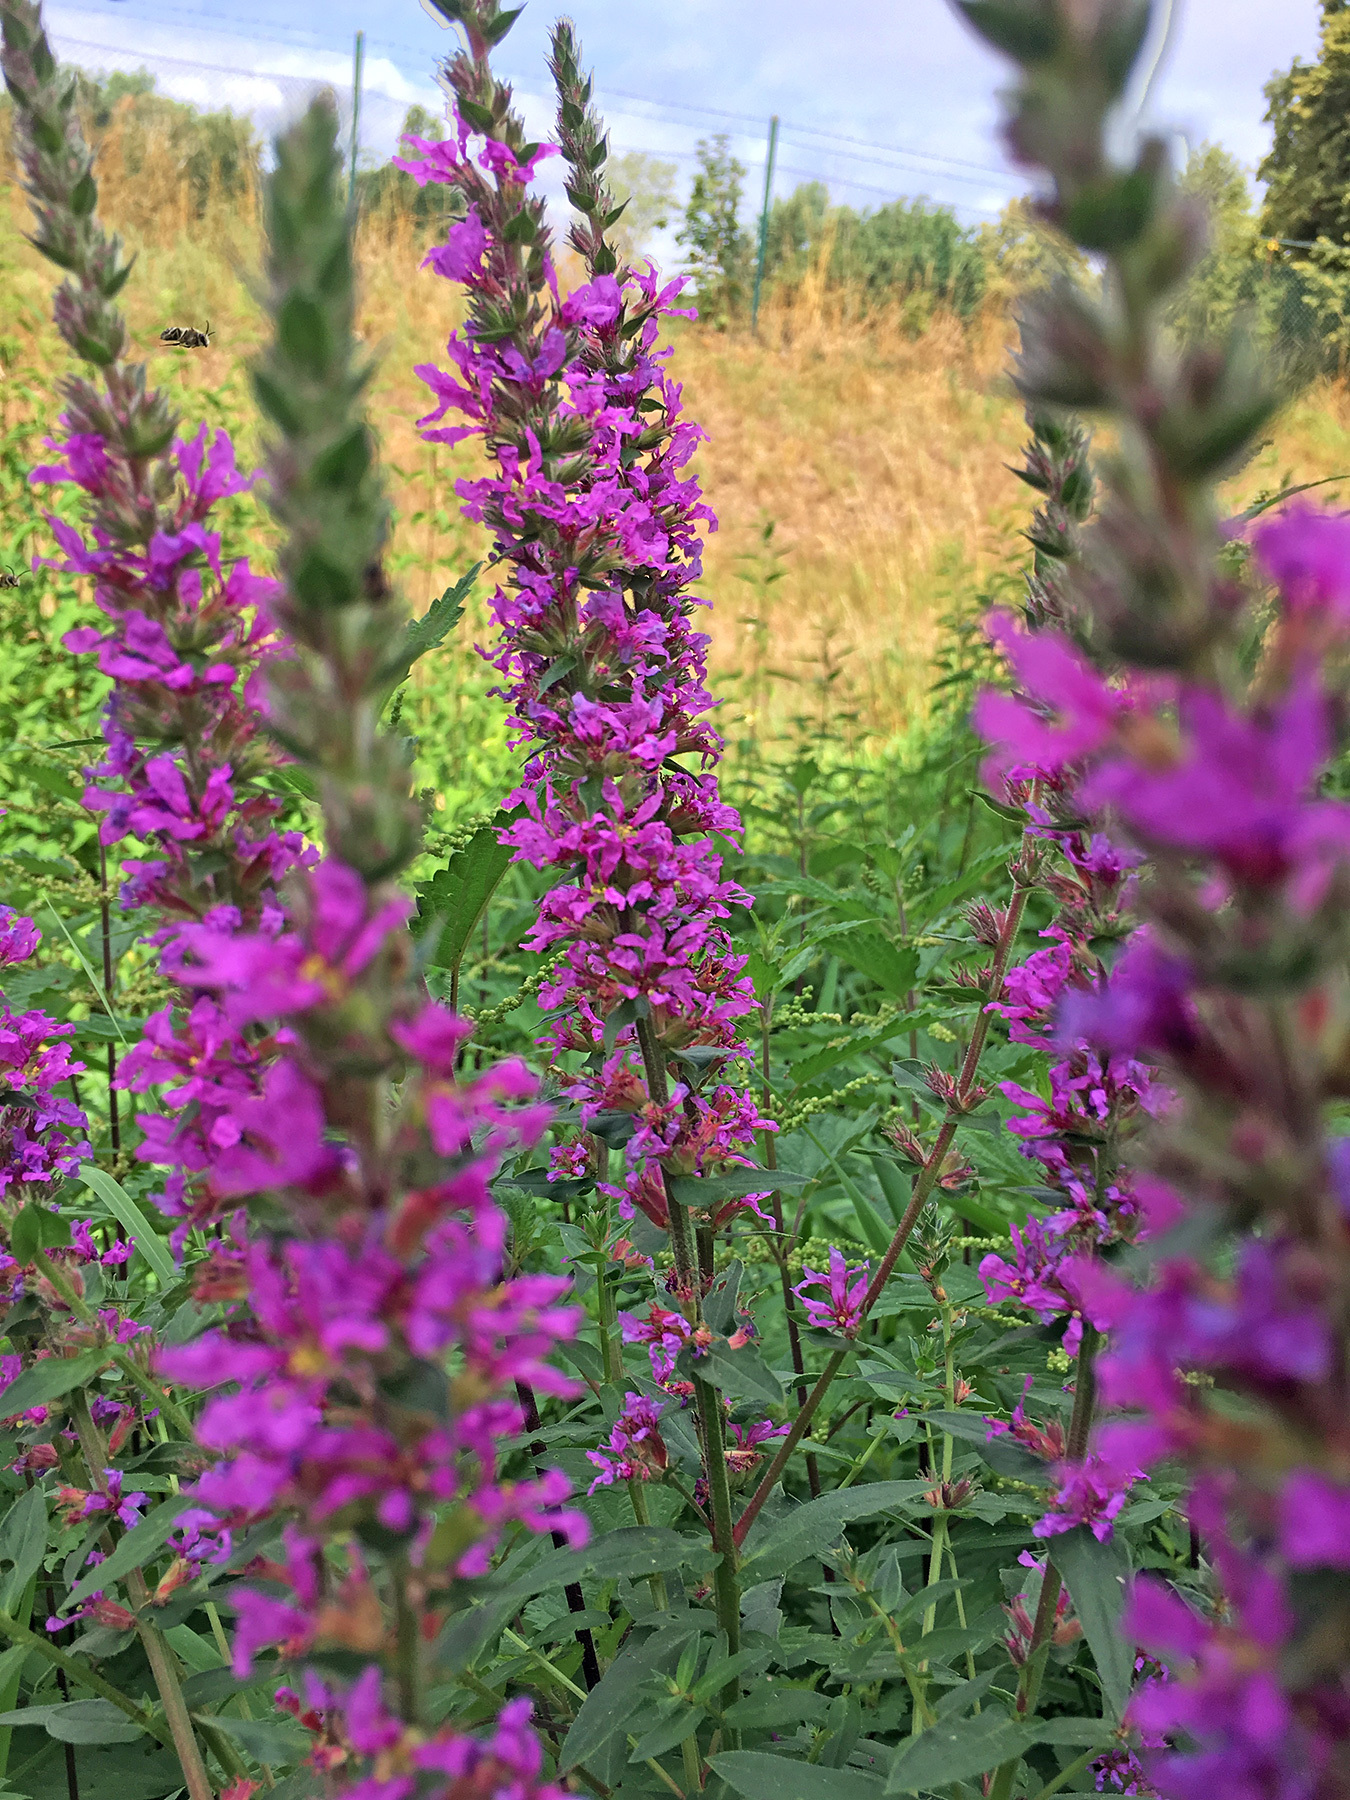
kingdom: Plantae
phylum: Tracheophyta
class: Magnoliopsida
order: Myrtales
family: Lythraceae
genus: Lythrum
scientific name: Lythrum salicaria
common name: Purple loosestrife
